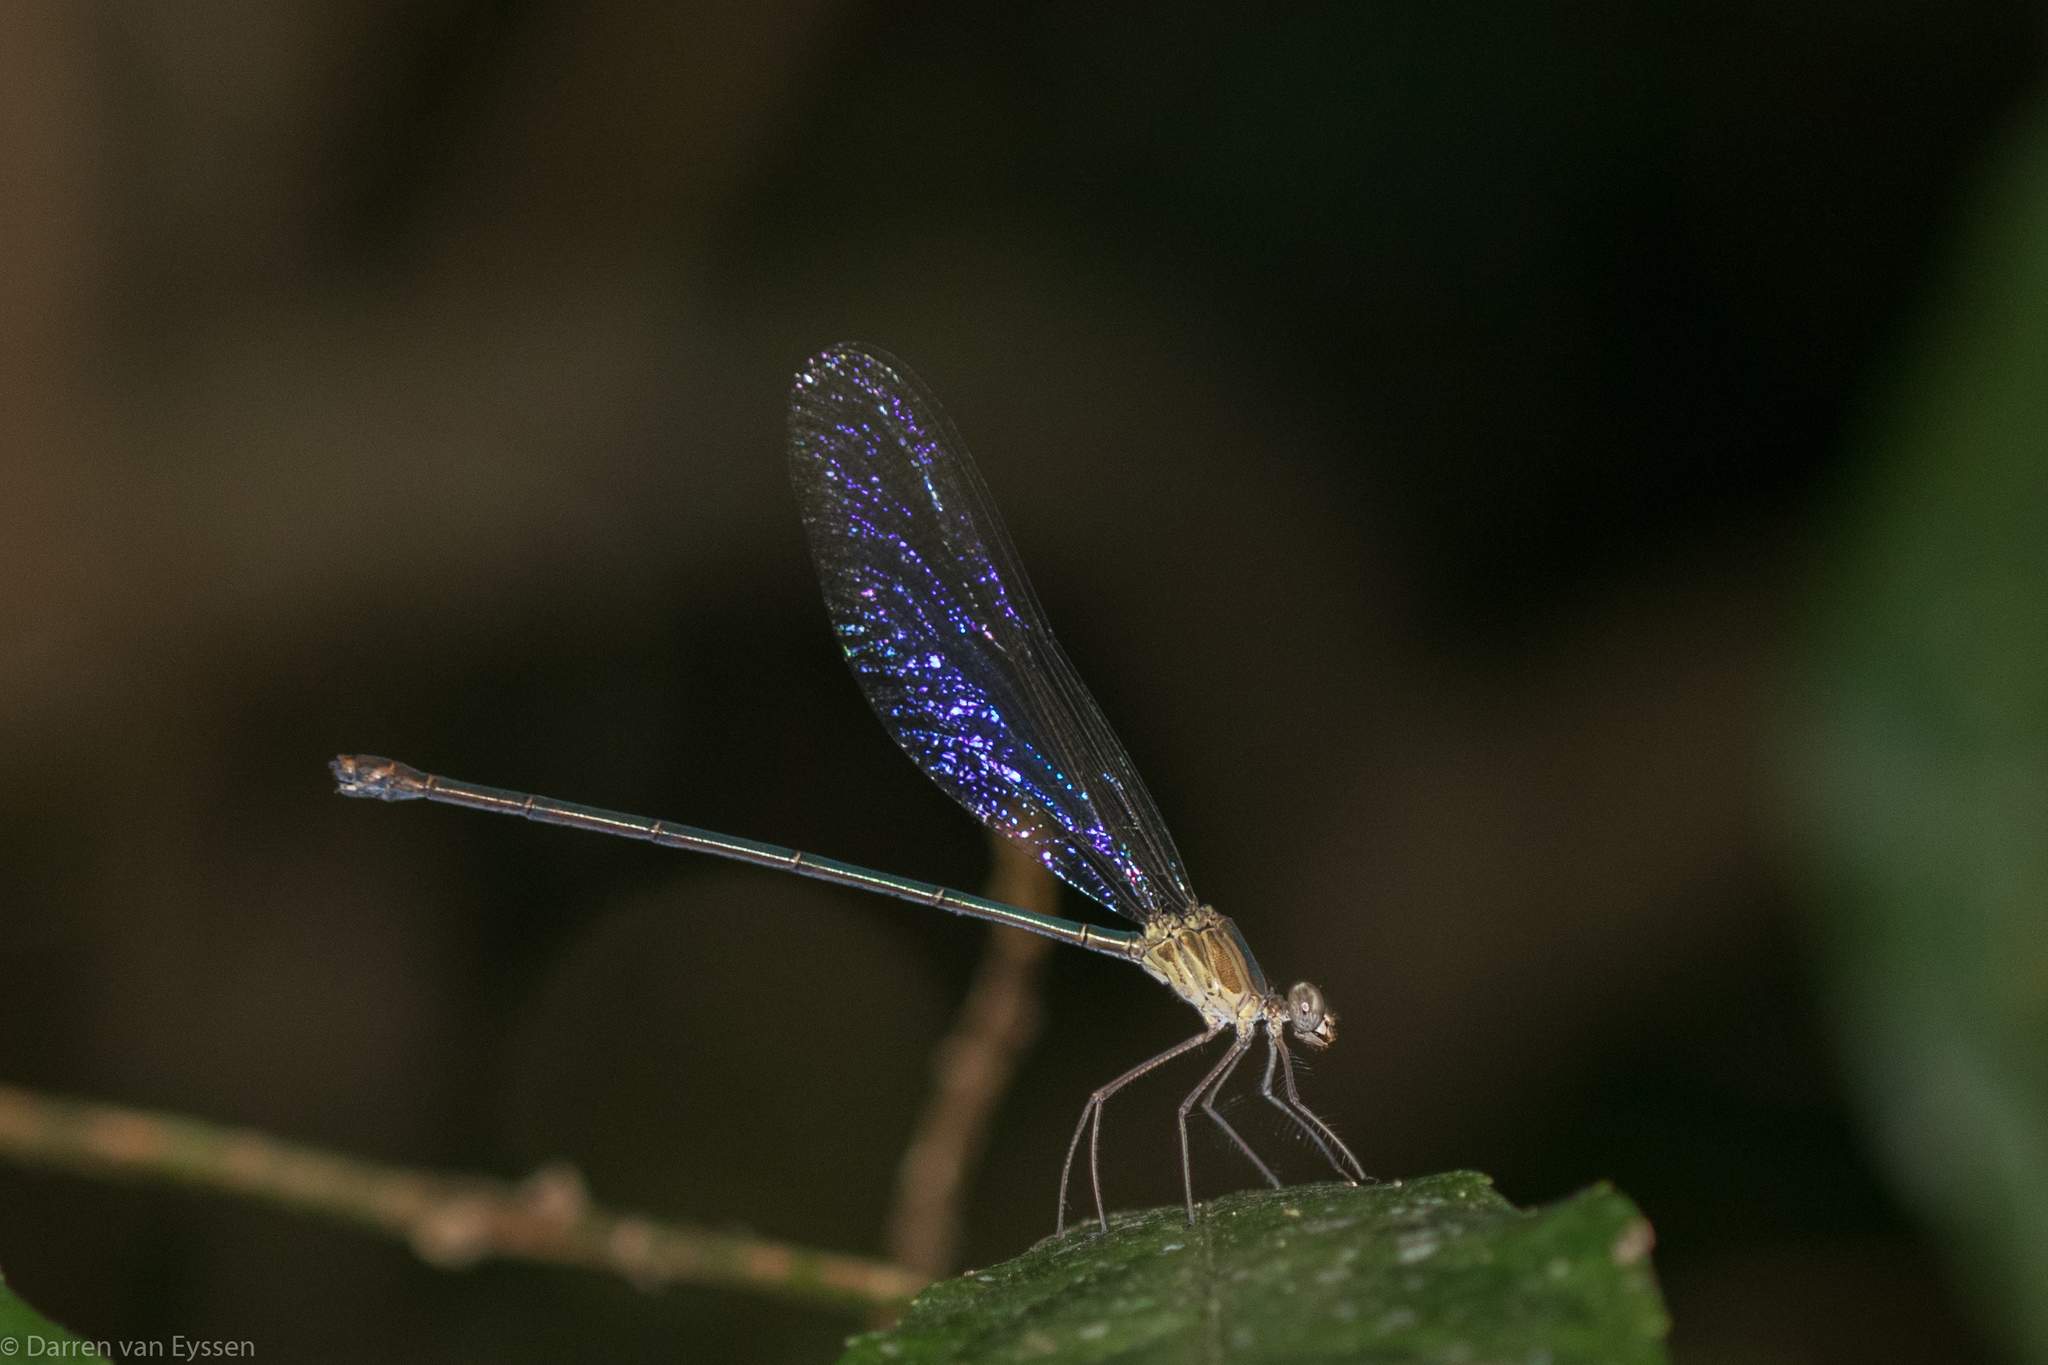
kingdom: Animalia
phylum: Arthropoda
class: Insecta
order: Odonata
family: Calopterygidae
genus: Phaon
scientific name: Phaon iridipennis
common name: Glistening demoiselle
